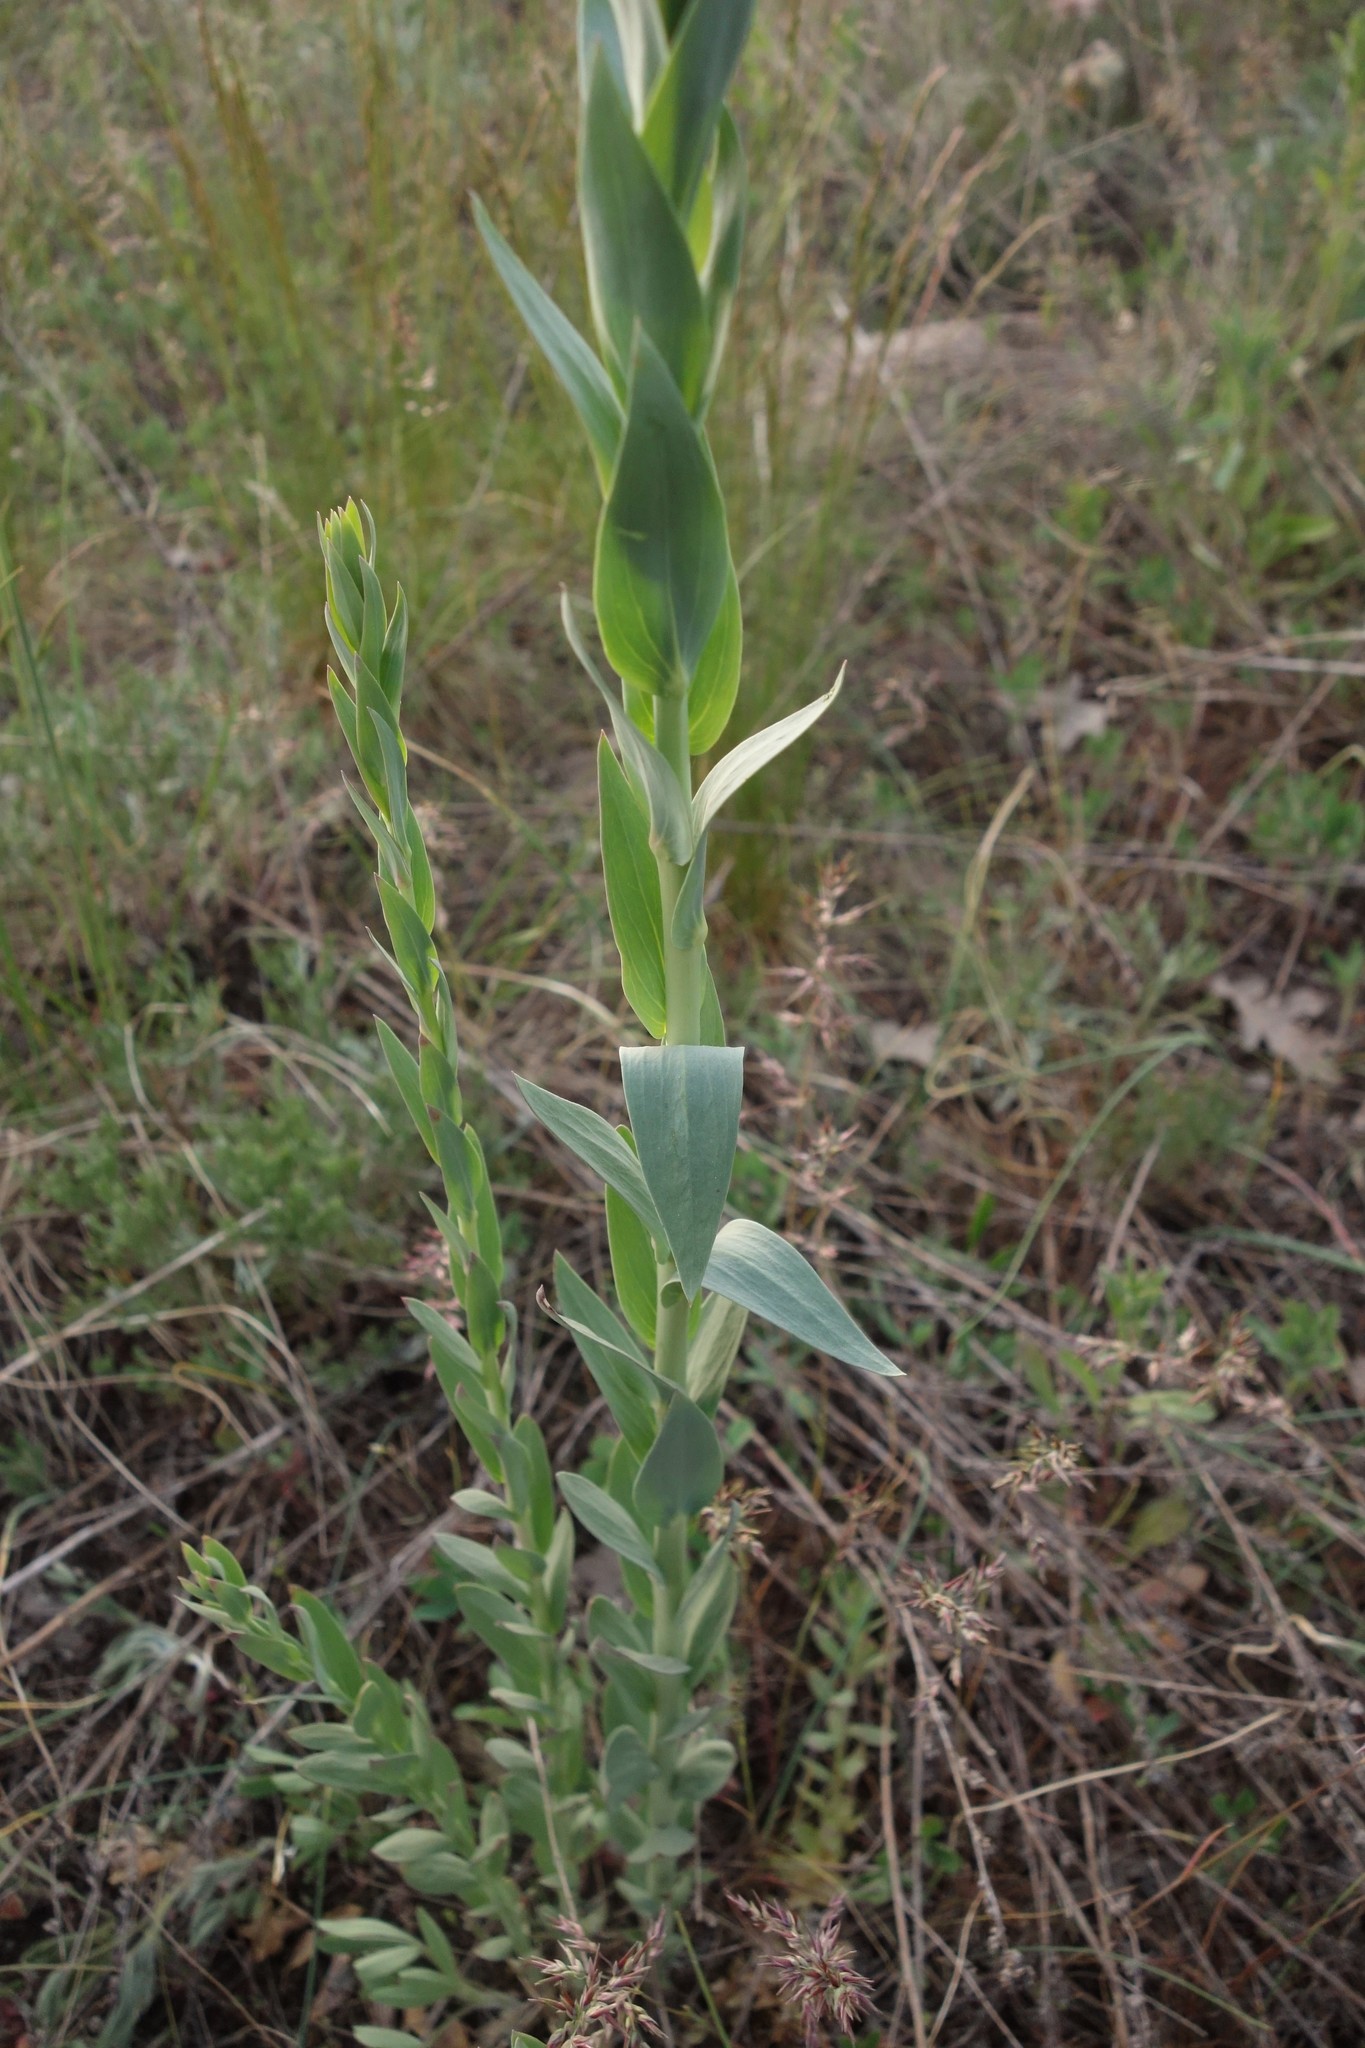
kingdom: Plantae
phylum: Tracheophyta
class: Magnoliopsida
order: Lamiales
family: Plantaginaceae
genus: Linaria
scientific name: Linaria genistifolia
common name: Broomleaf toadflax
